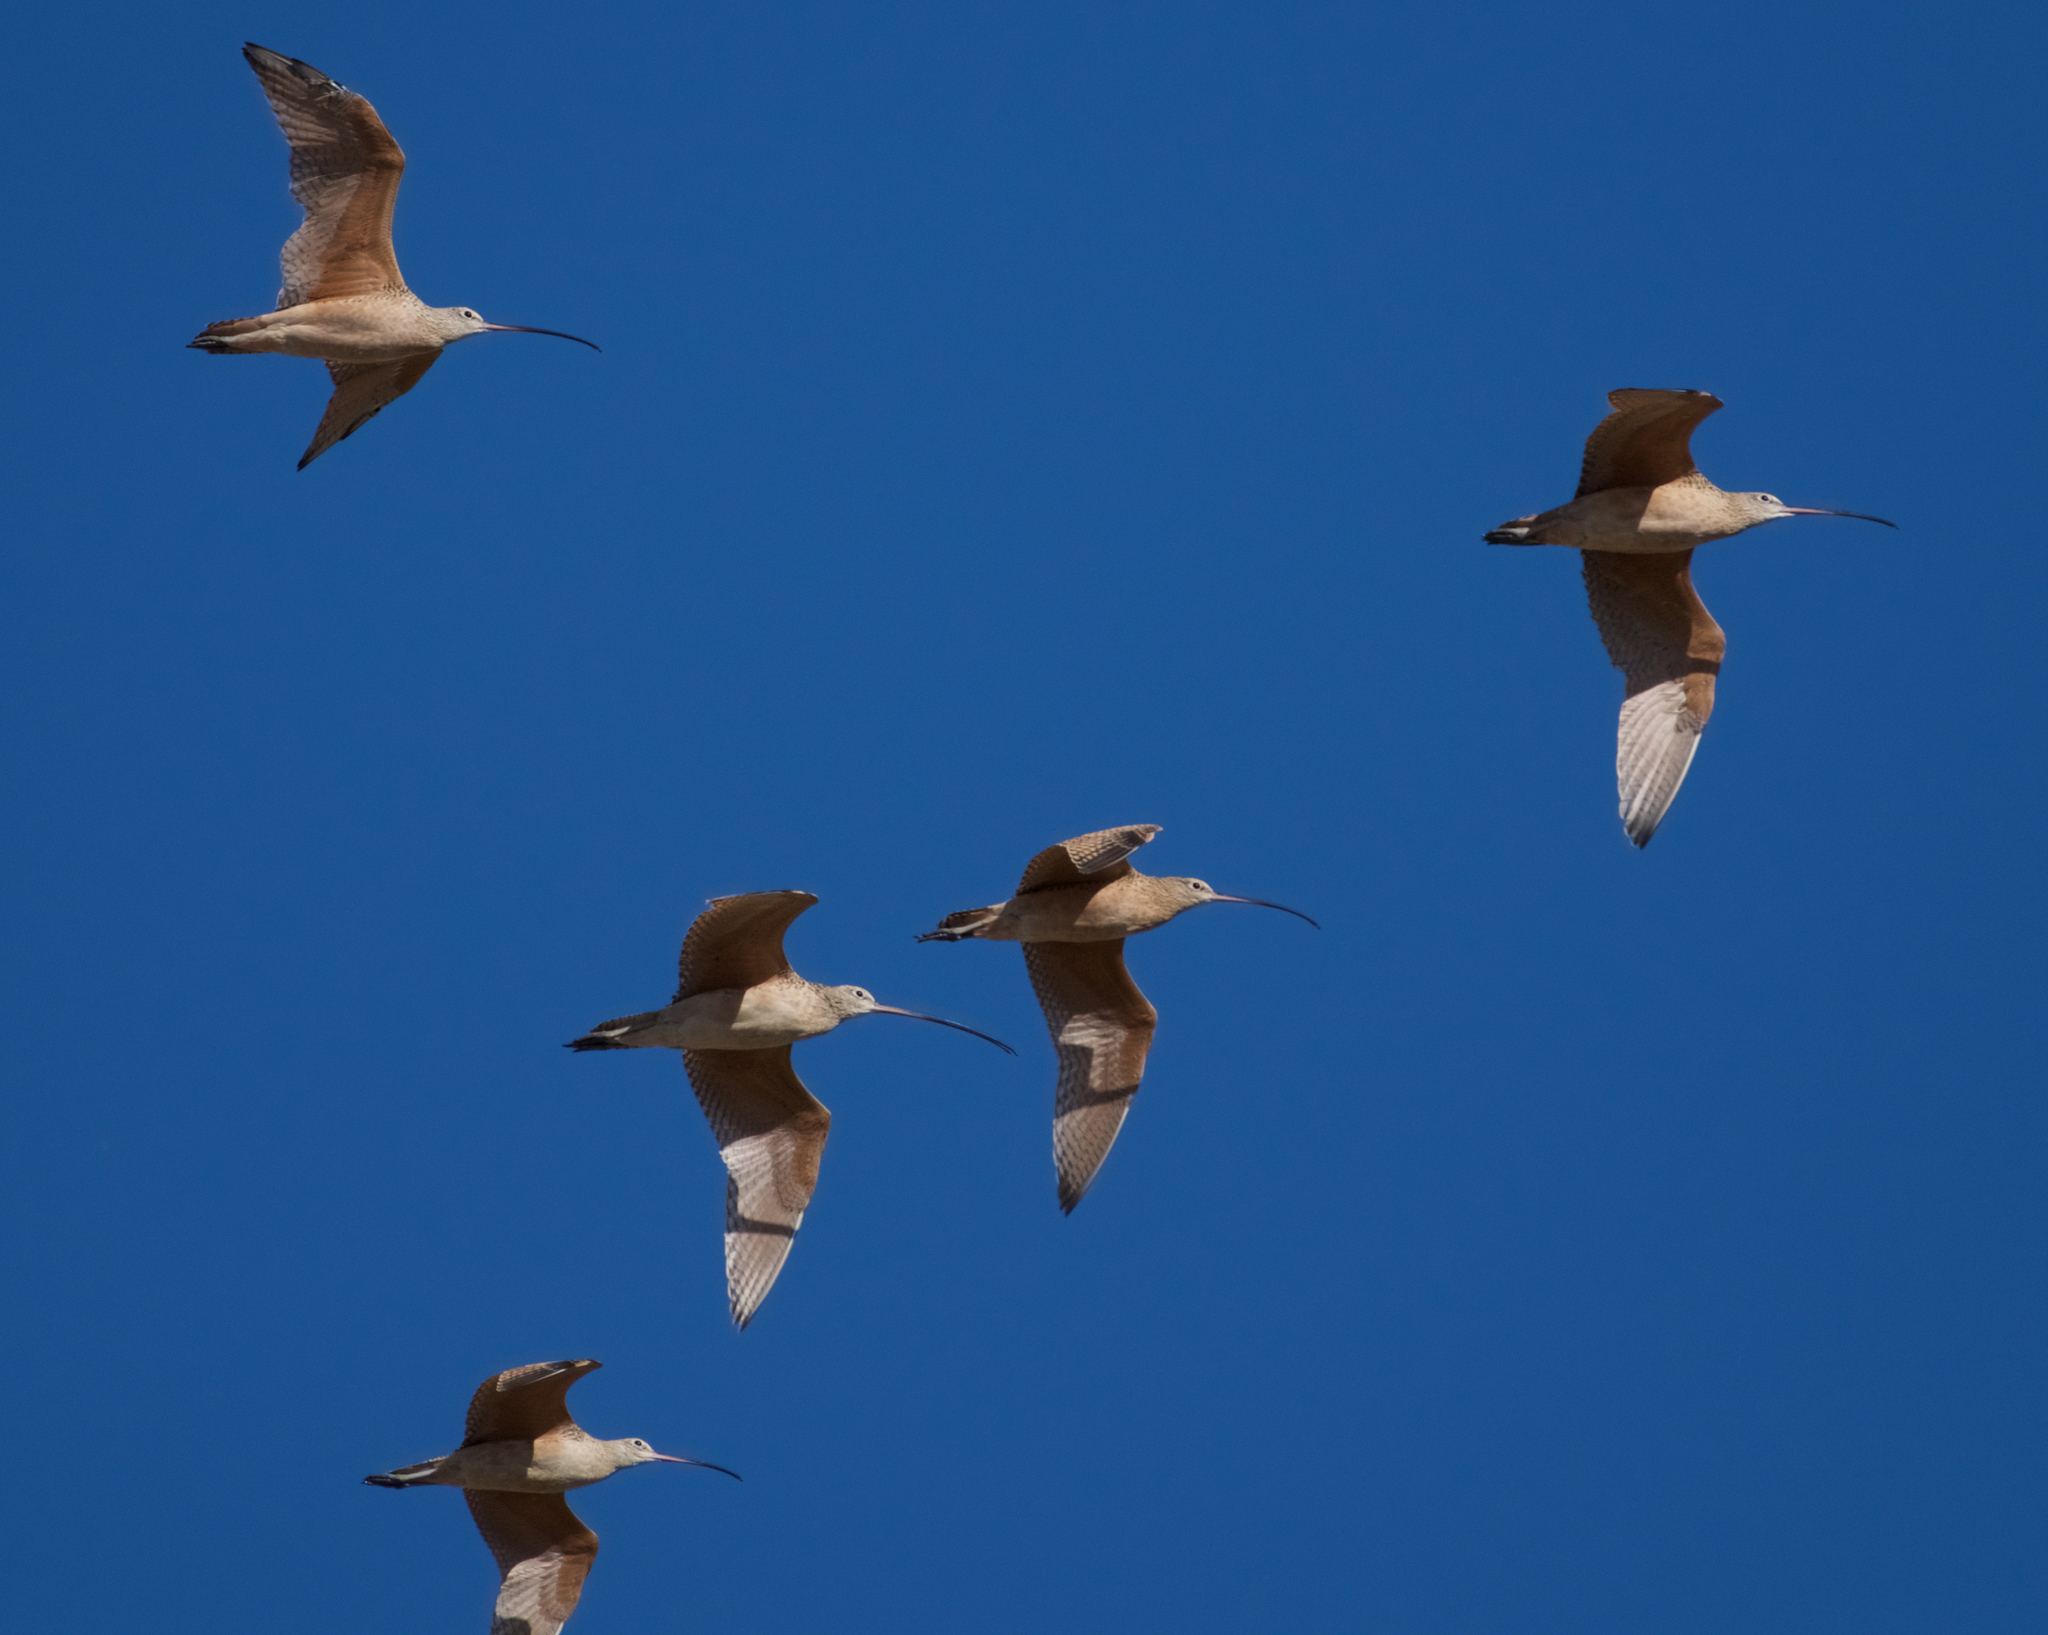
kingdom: Animalia
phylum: Chordata
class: Aves
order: Charadriiformes
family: Scolopacidae
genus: Numenius
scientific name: Numenius americanus
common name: Long-billed curlew
